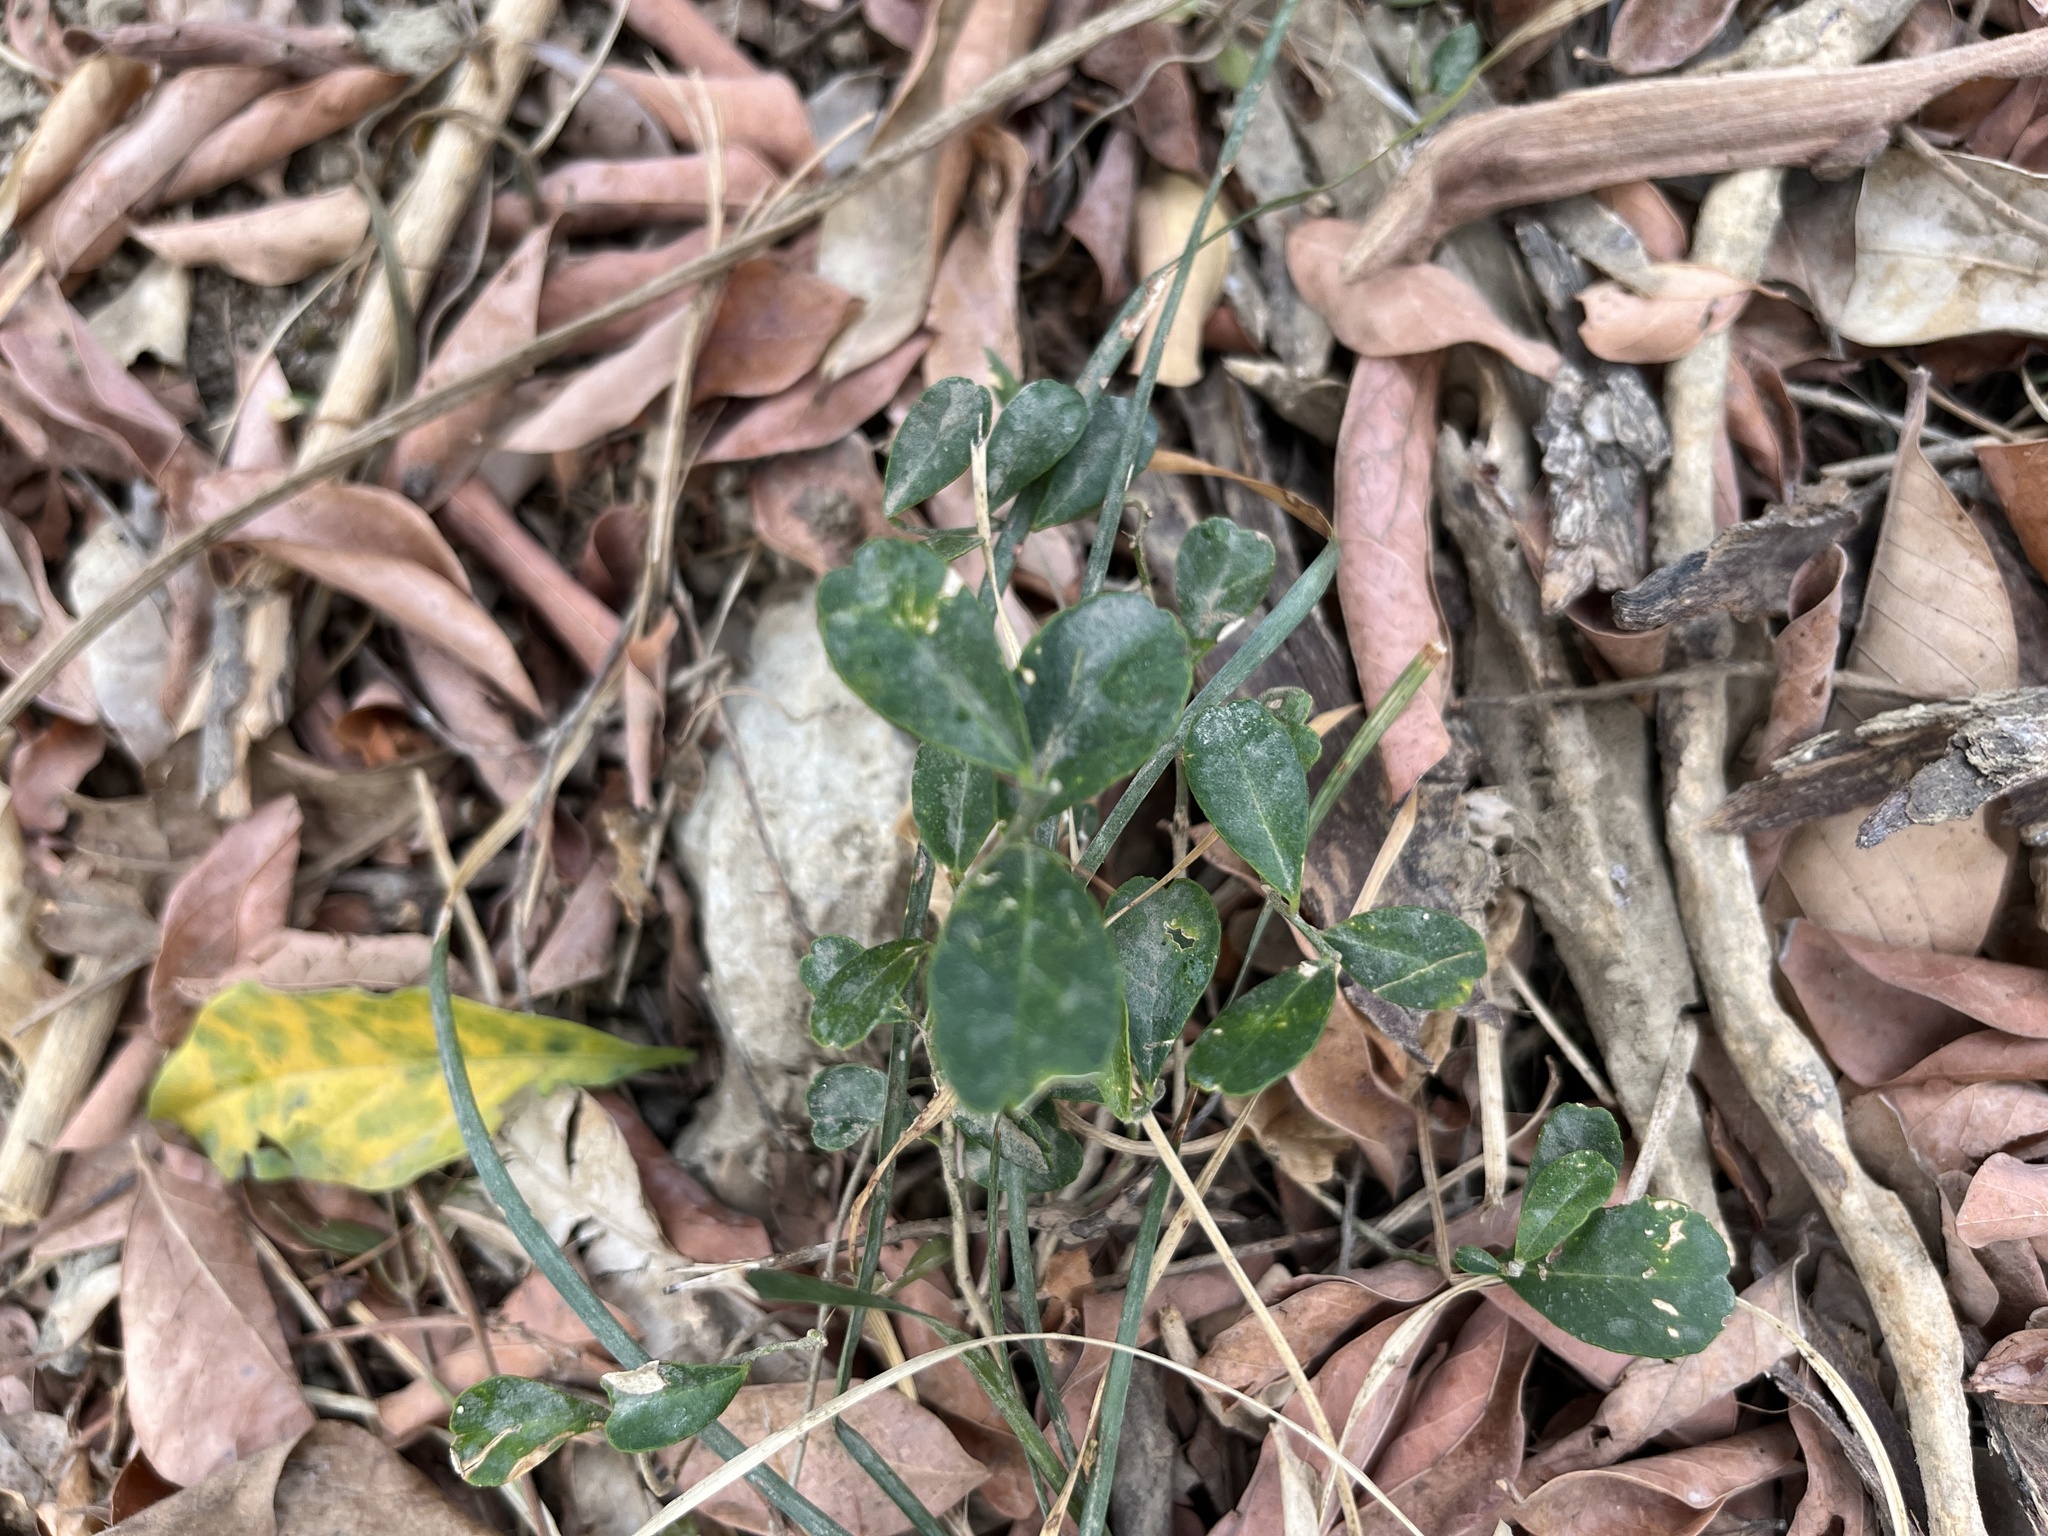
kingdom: Plantae
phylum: Tracheophyta
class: Magnoliopsida
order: Sapindales
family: Rutaceae
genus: Atalantia
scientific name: Atalantia buxifolia
